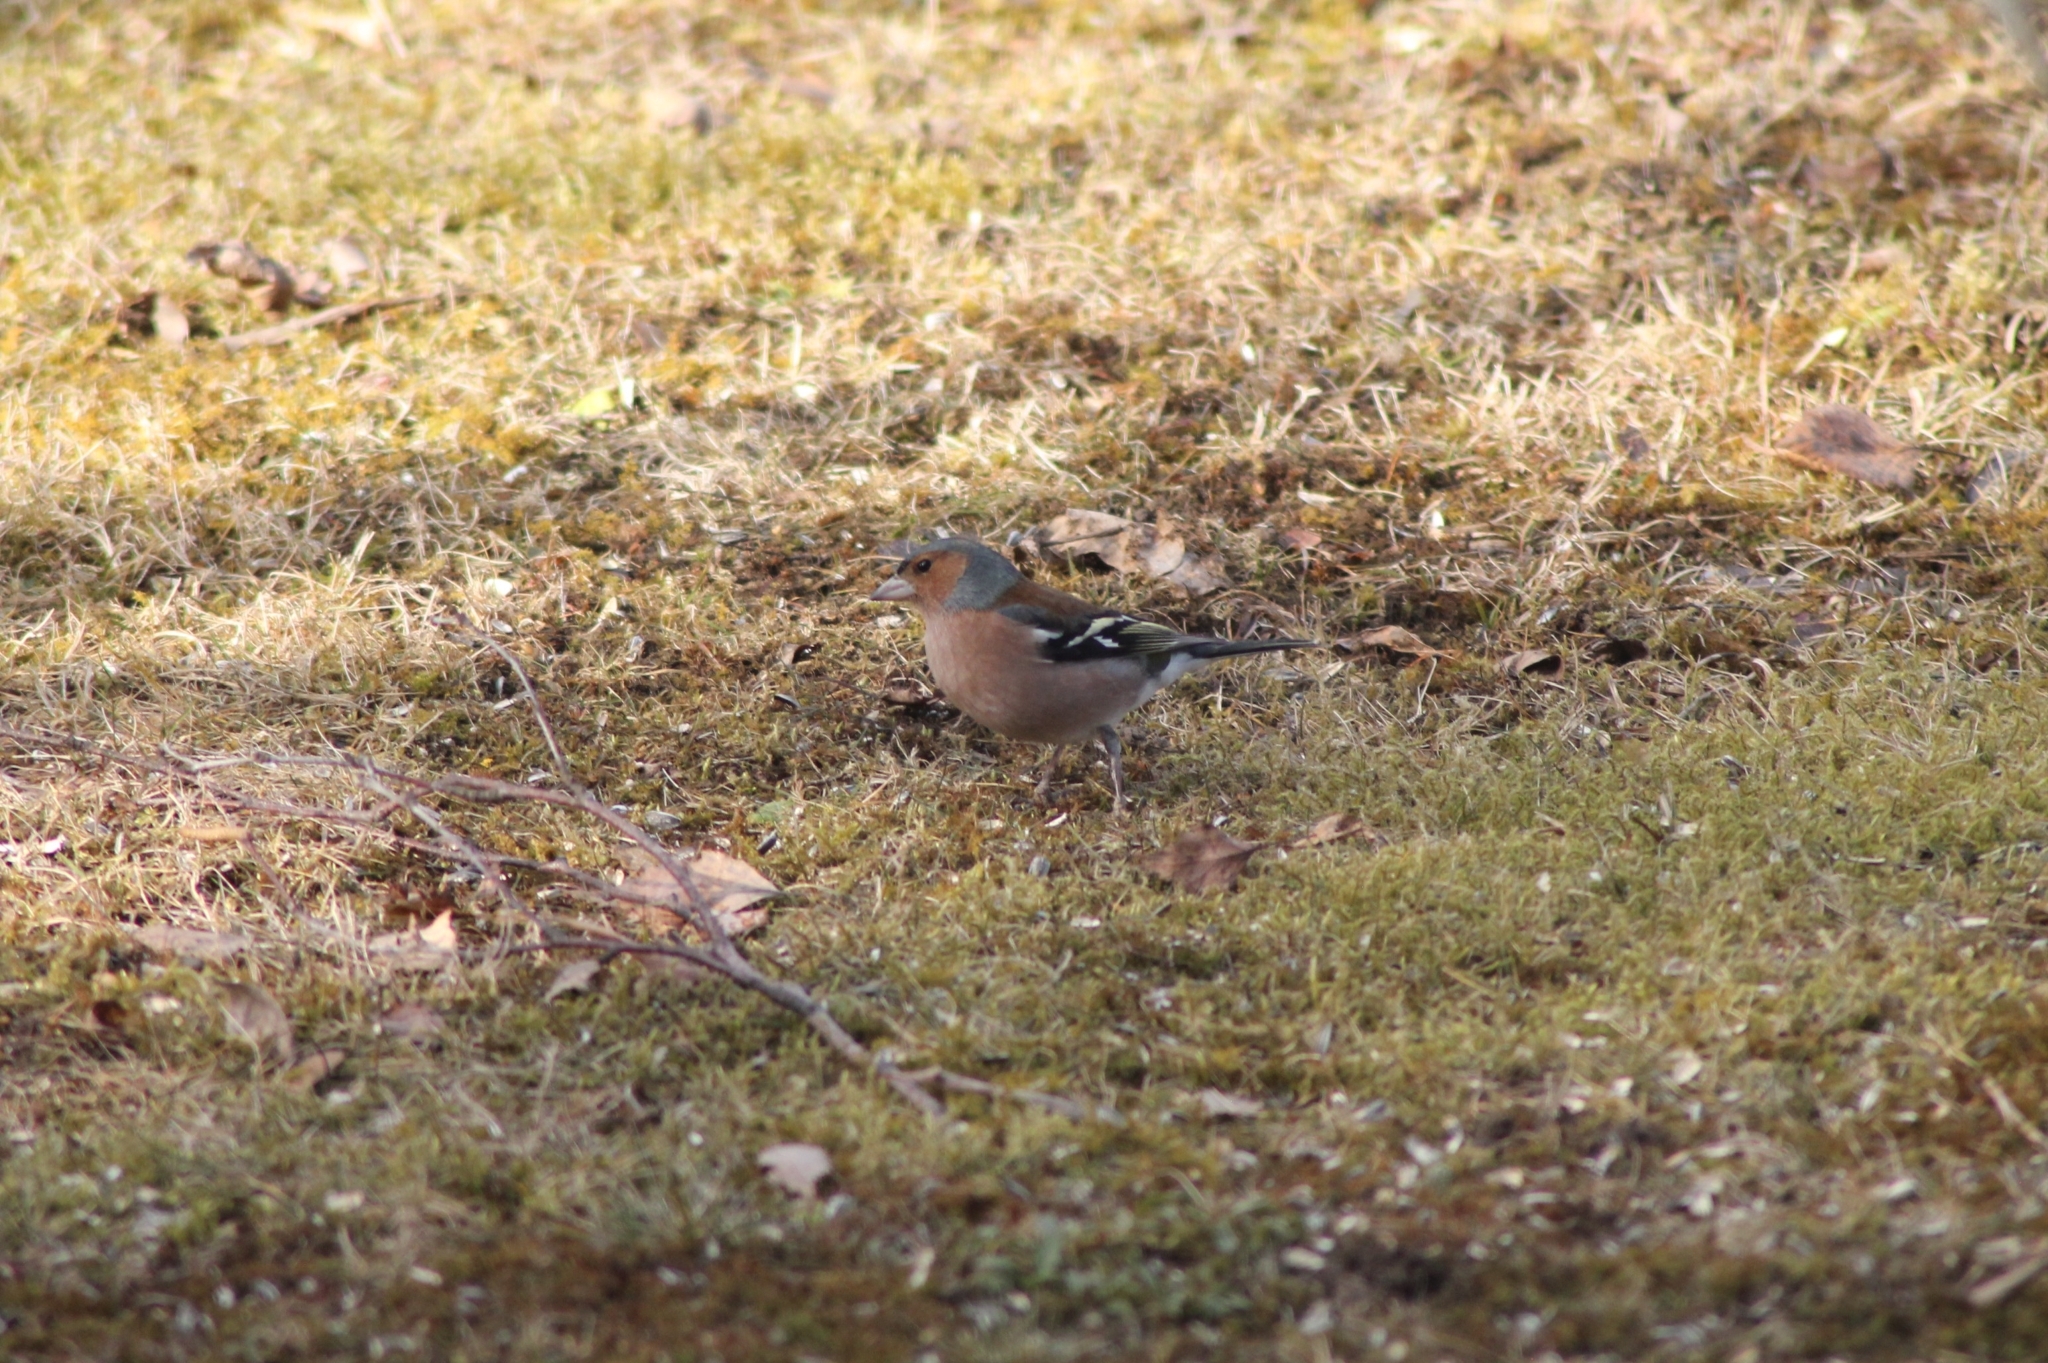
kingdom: Animalia
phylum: Chordata
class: Aves
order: Passeriformes
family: Fringillidae
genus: Fringilla
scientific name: Fringilla coelebs
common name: Common chaffinch
